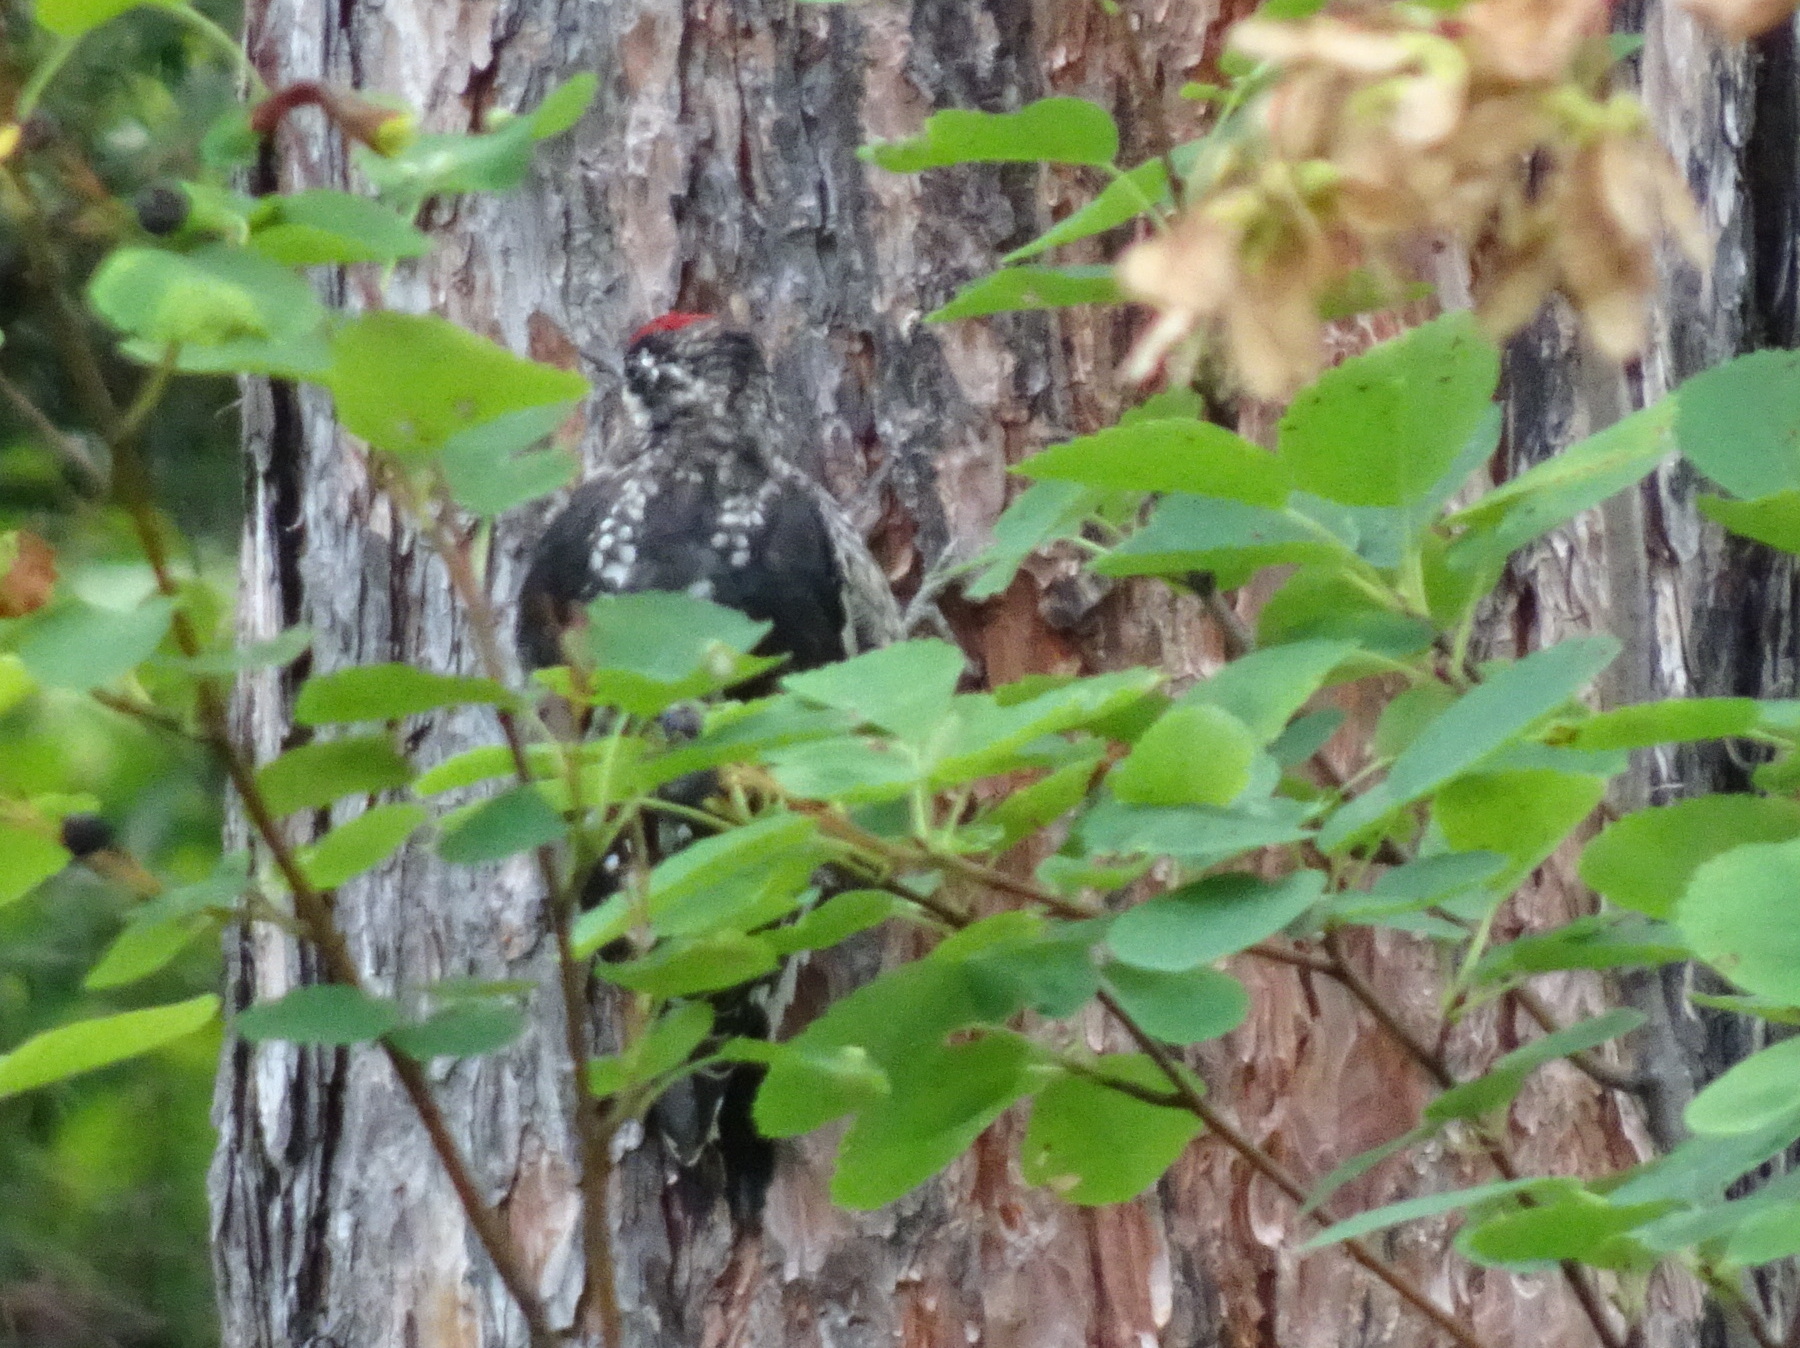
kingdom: Animalia
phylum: Chordata
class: Aves
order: Piciformes
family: Picidae
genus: Sphyrapicus
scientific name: Sphyrapicus nuchalis
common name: Red-naped sapsucker
